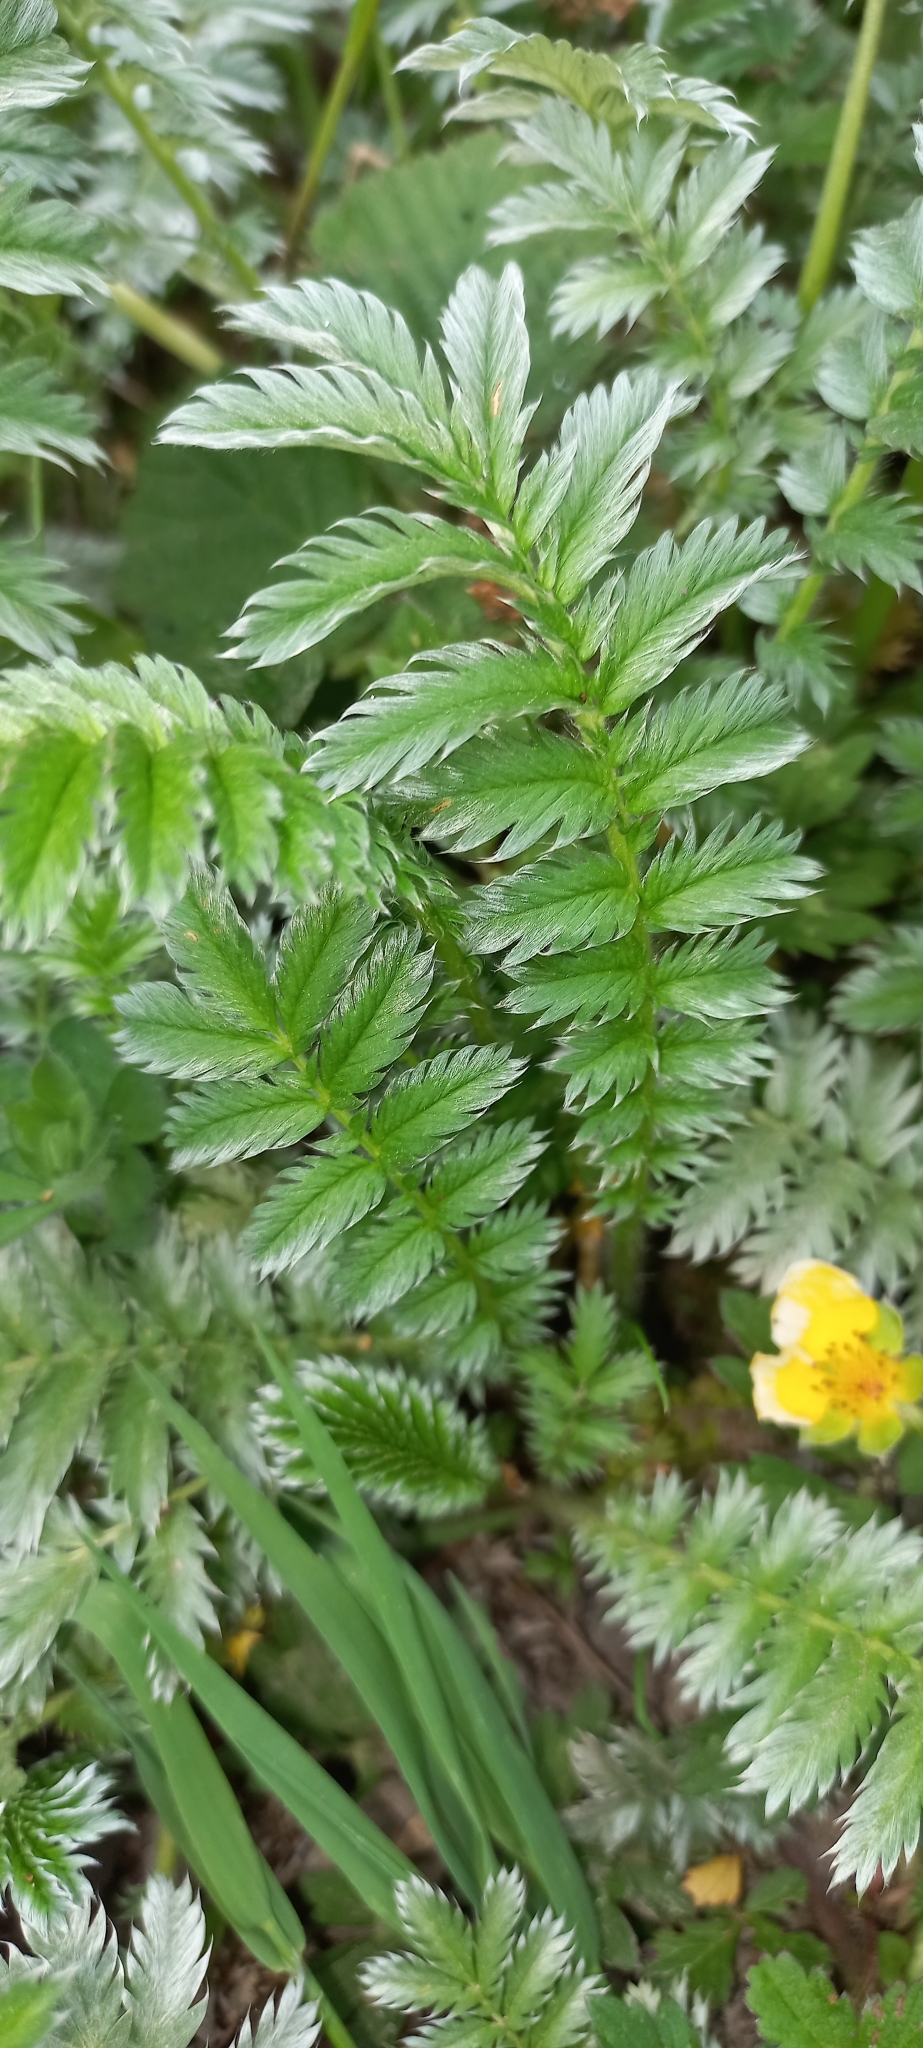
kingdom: Plantae
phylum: Tracheophyta
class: Magnoliopsida
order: Rosales
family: Rosaceae
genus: Argentina
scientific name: Argentina anserina
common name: Common silverweed
